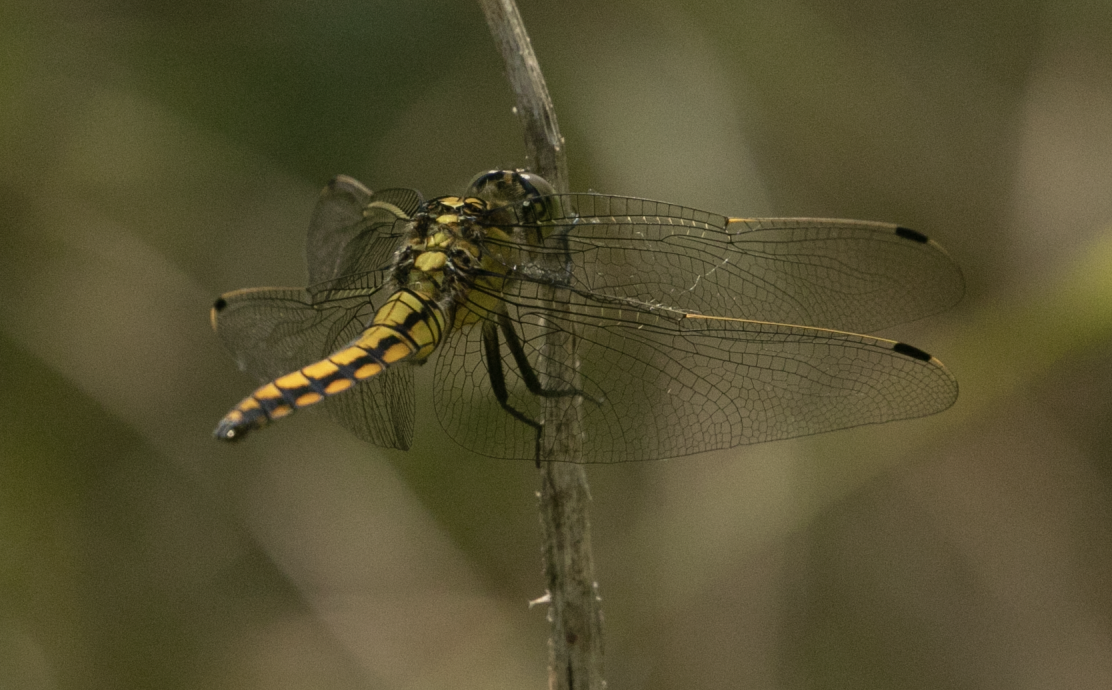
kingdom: Animalia
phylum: Arthropoda
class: Insecta
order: Odonata
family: Libellulidae
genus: Orthetrum
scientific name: Orthetrum cancellatum
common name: Black-tailed skimmer
